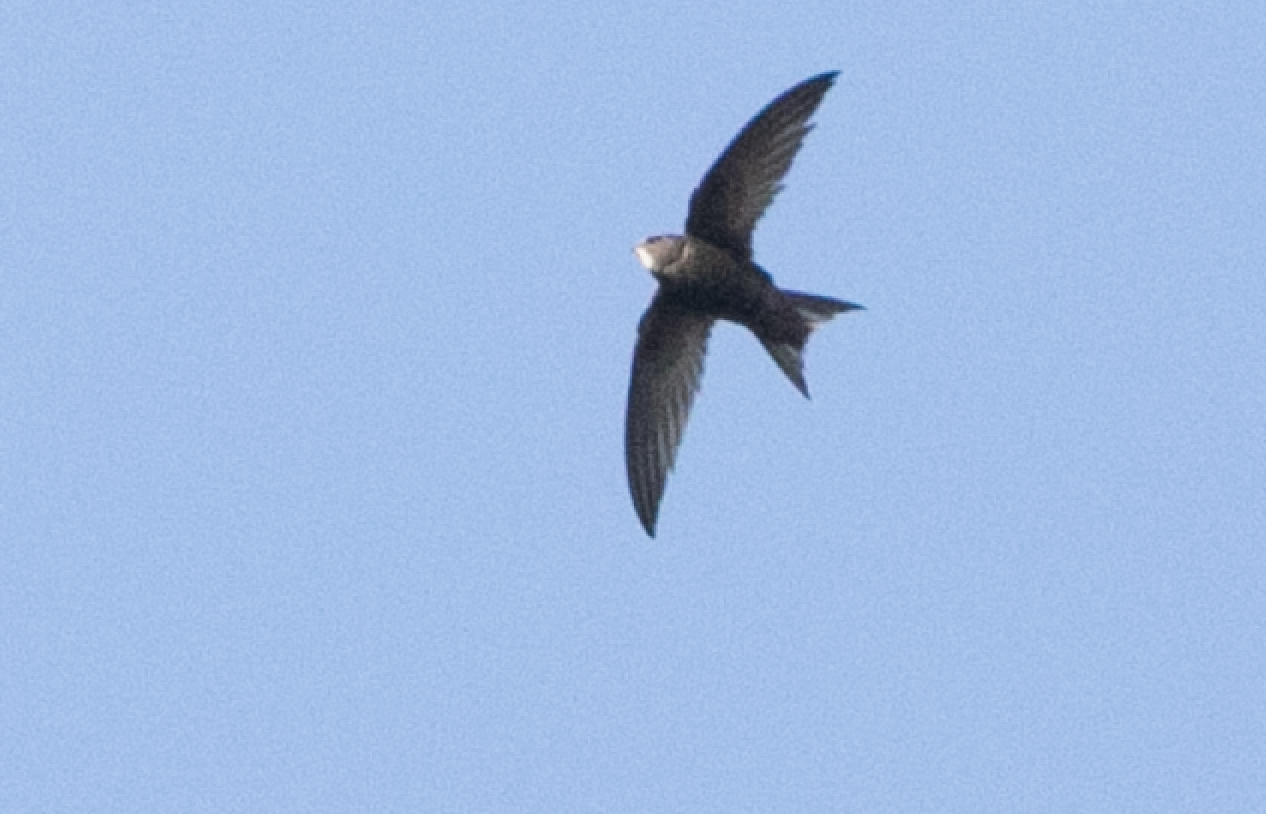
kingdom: Animalia
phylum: Chordata
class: Aves
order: Apodiformes
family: Apodidae
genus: Apus
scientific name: Apus apus
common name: Common swift
